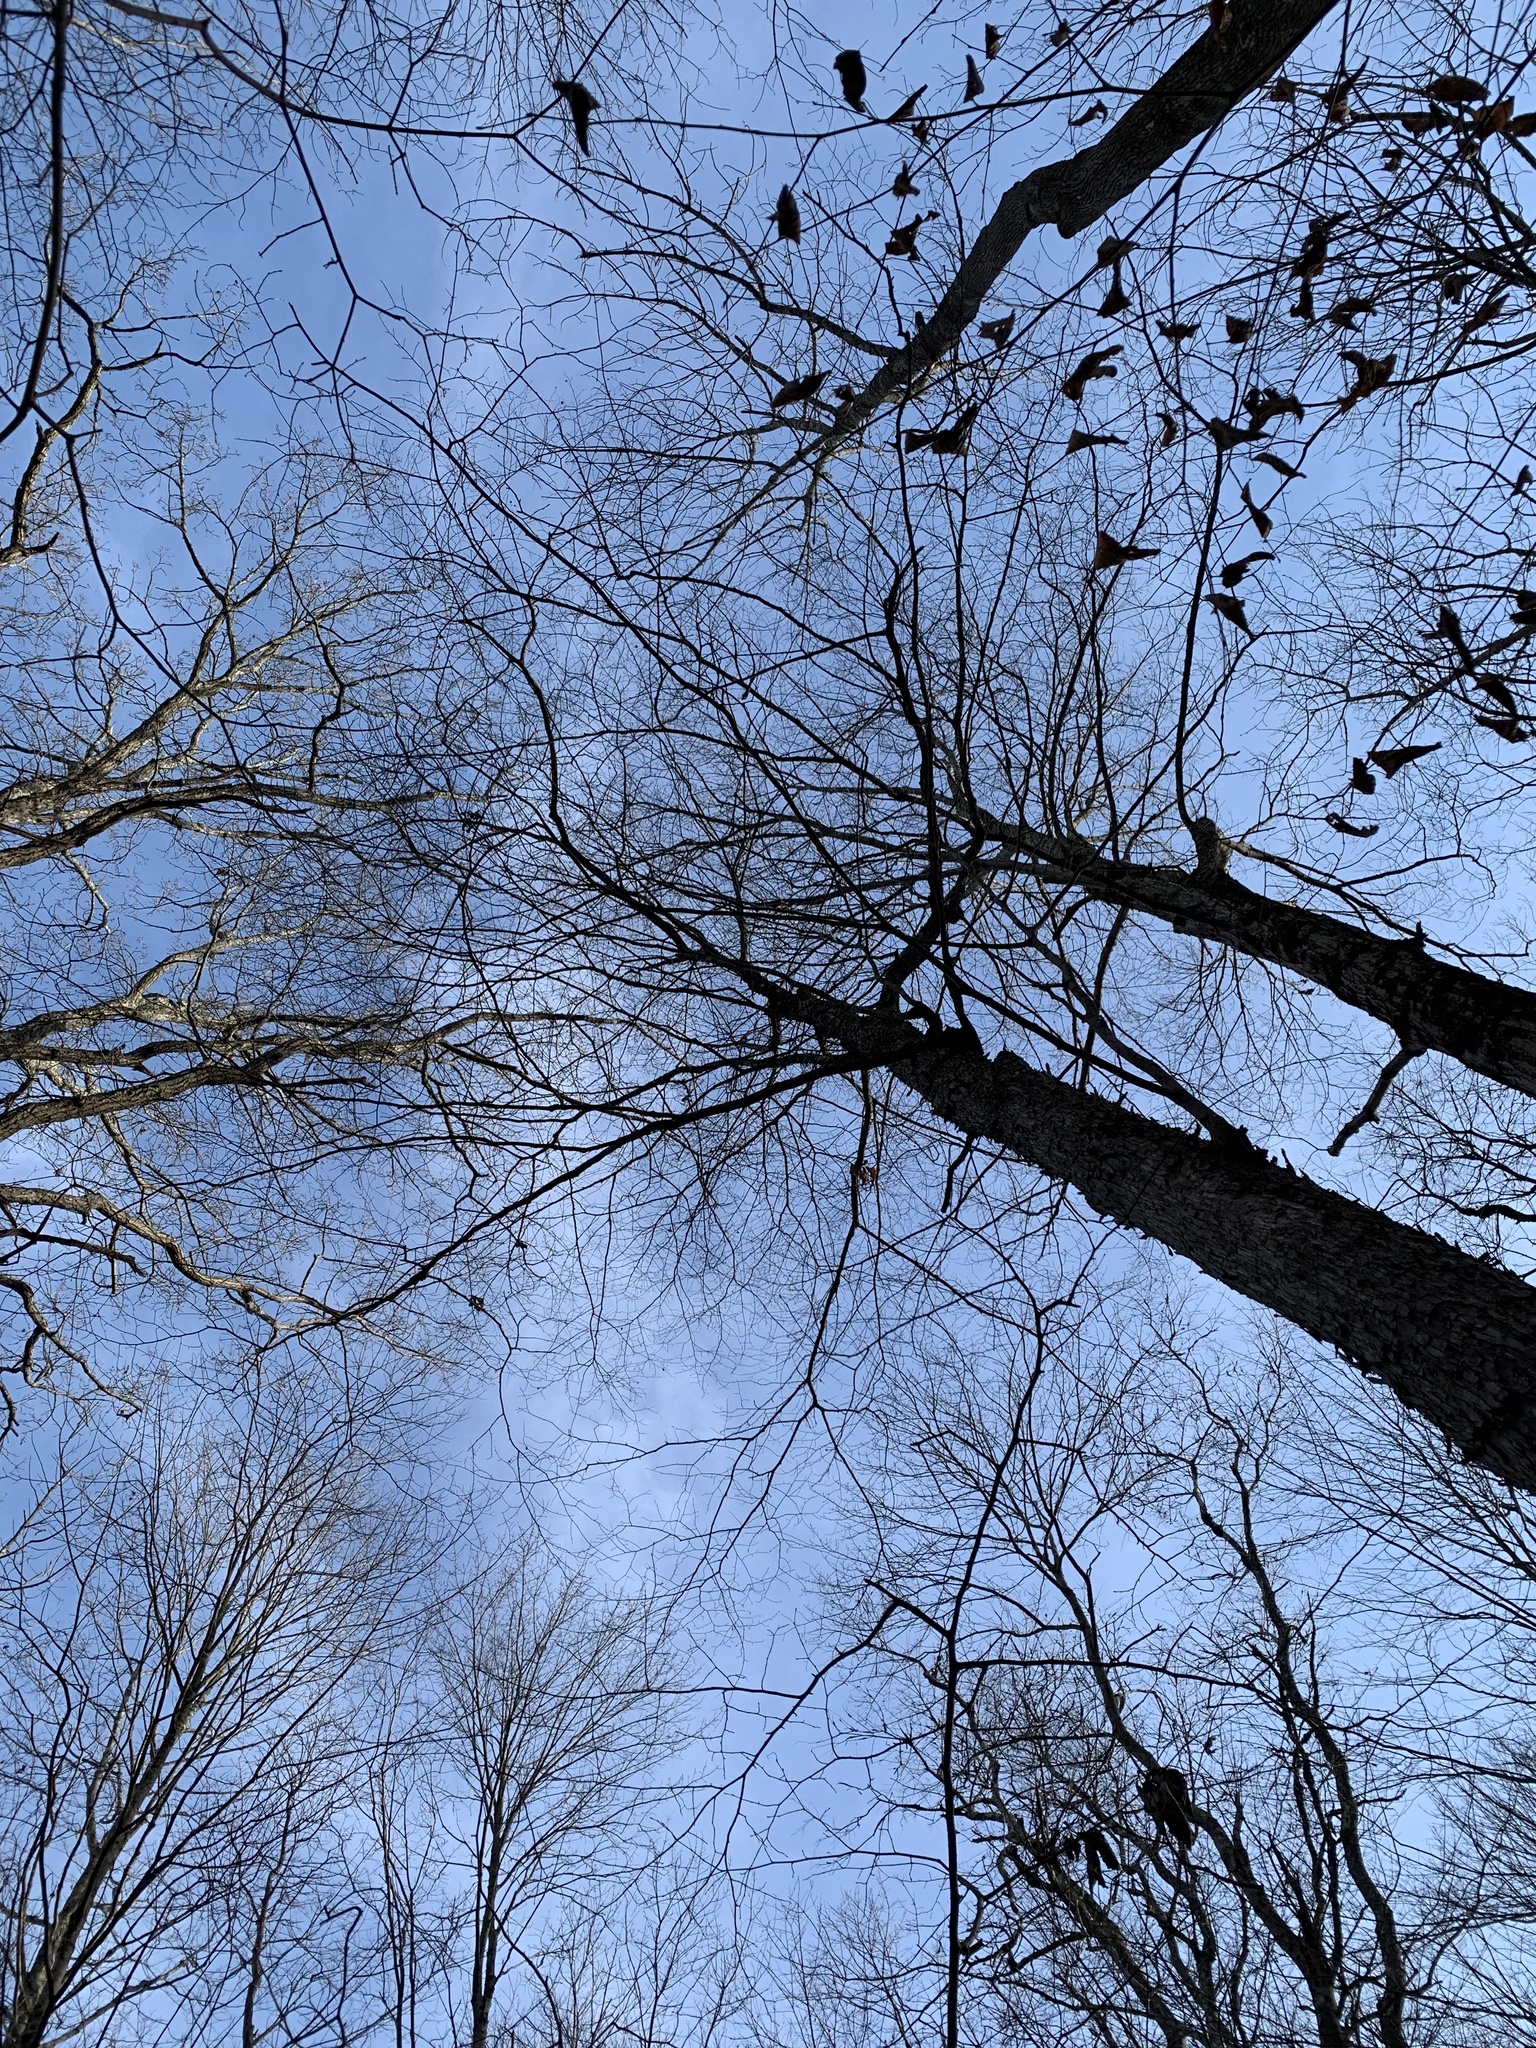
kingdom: Plantae
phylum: Tracheophyta
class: Magnoliopsida
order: Fagales
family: Betulaceae
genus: Ostrya
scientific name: Ostrya virginiana
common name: Ironwood
